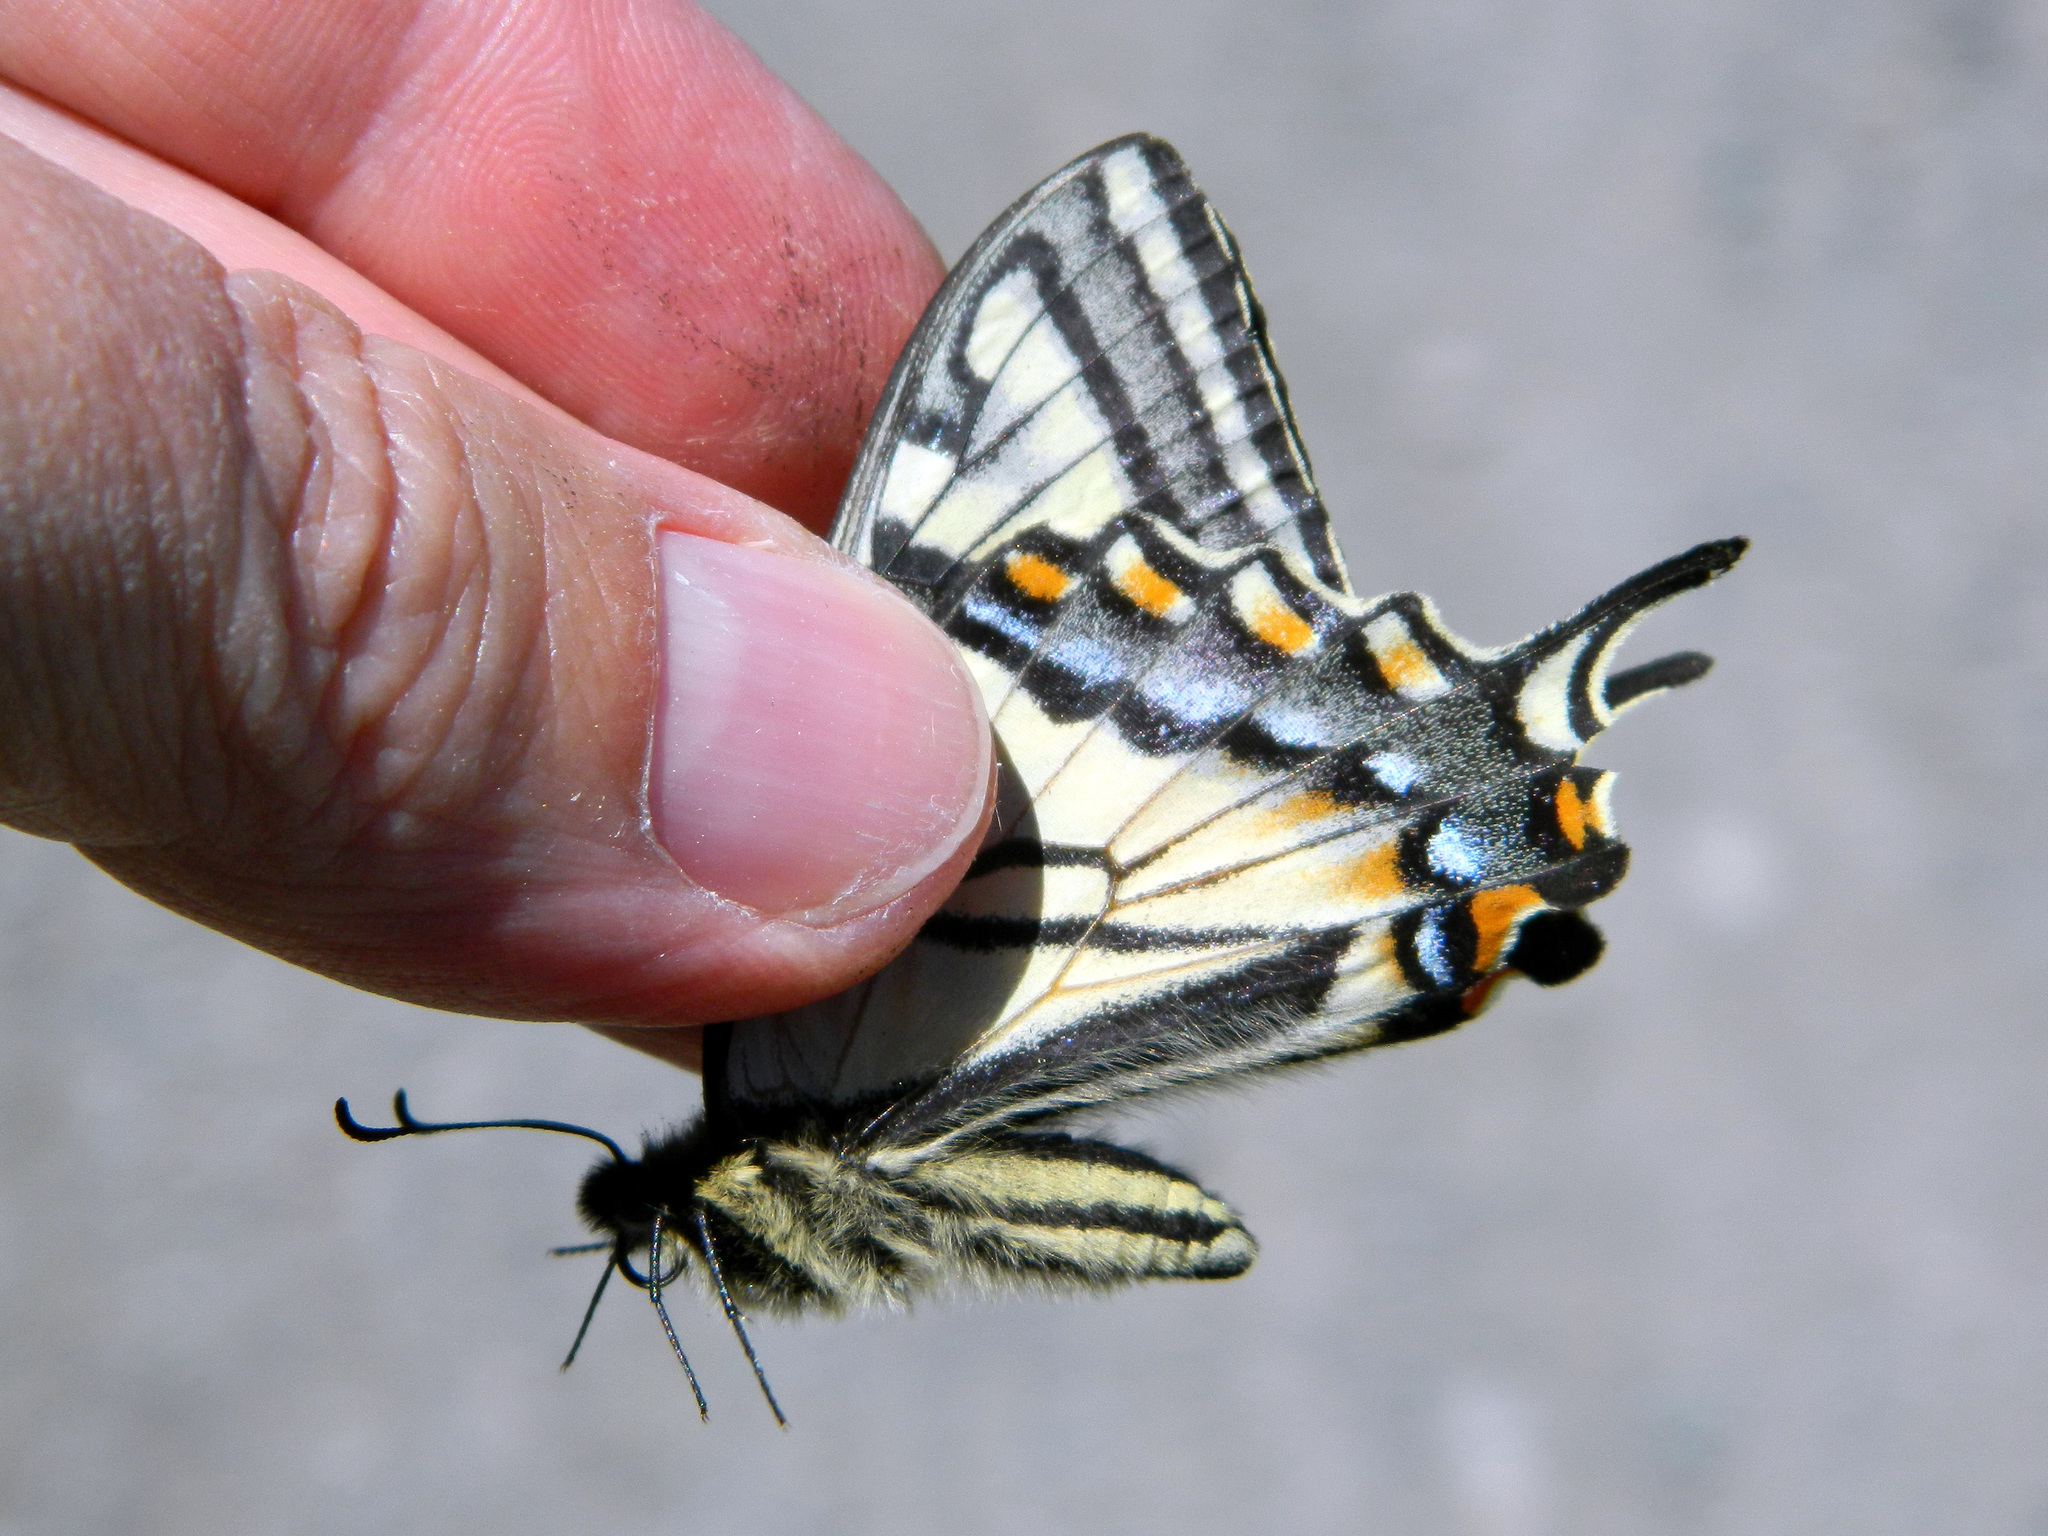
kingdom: Animalia
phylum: Arthropoda
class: Insecta
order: Lepidoptera
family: Papilionidae
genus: Papilio
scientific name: Papilio canadensis
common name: Canadian tiger swallowtail
